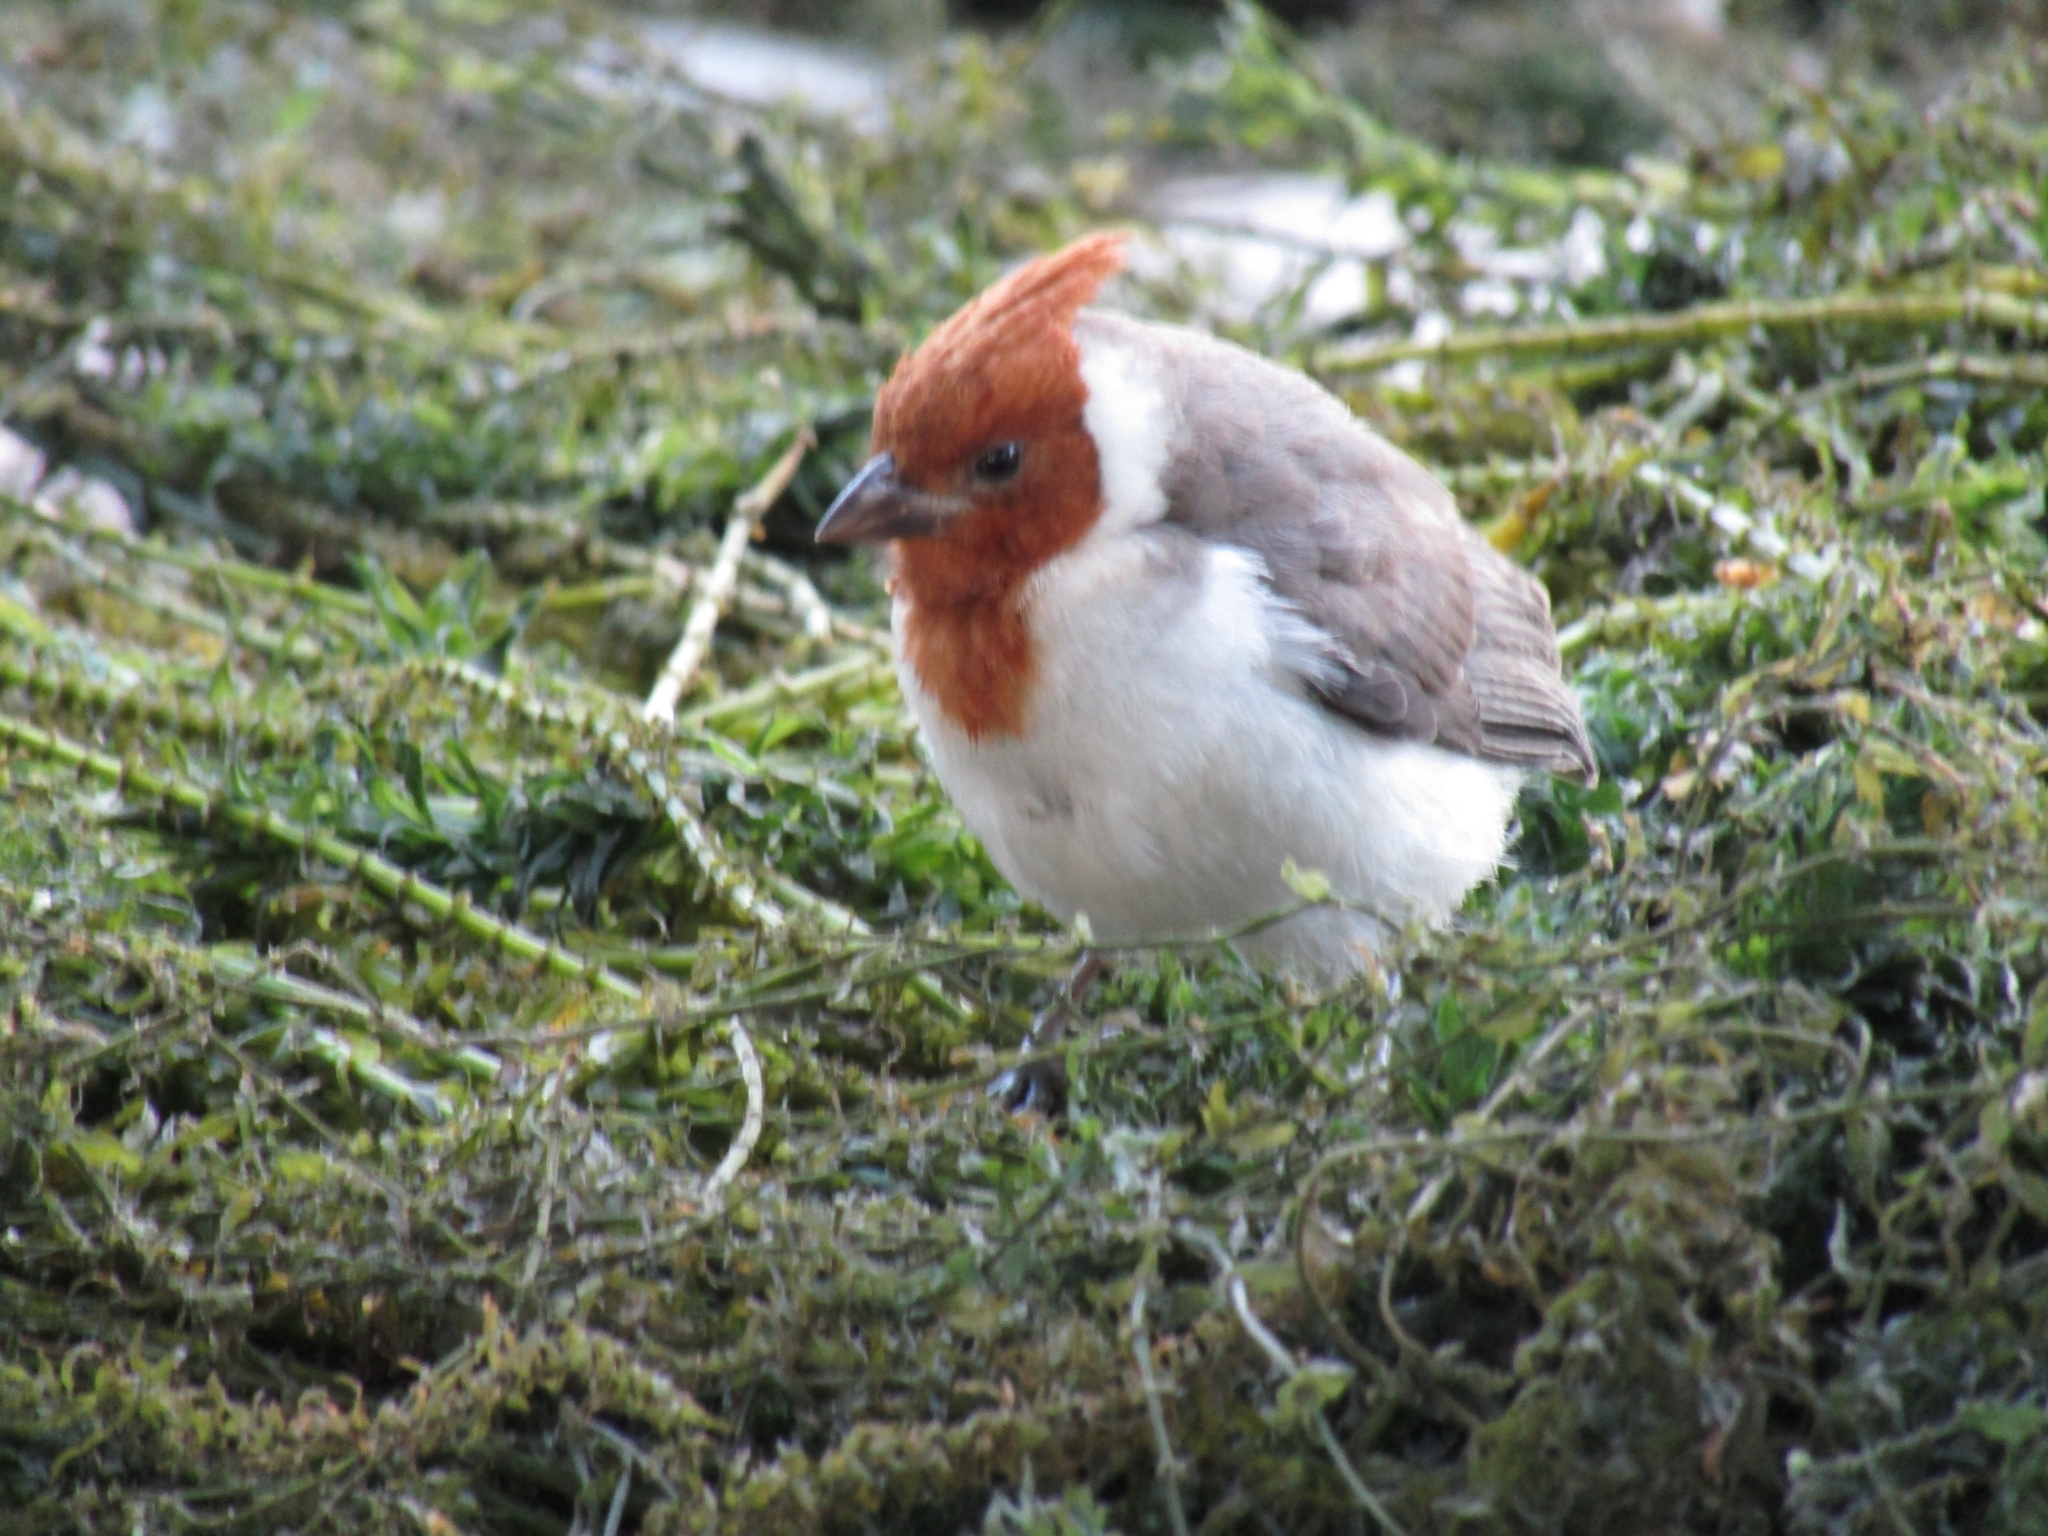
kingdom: Animalia
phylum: Chordata
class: Aves
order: Passeriformes
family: Thraupidae
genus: Paroaria
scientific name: Paroaria coronata
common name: Red-crested cardinal
